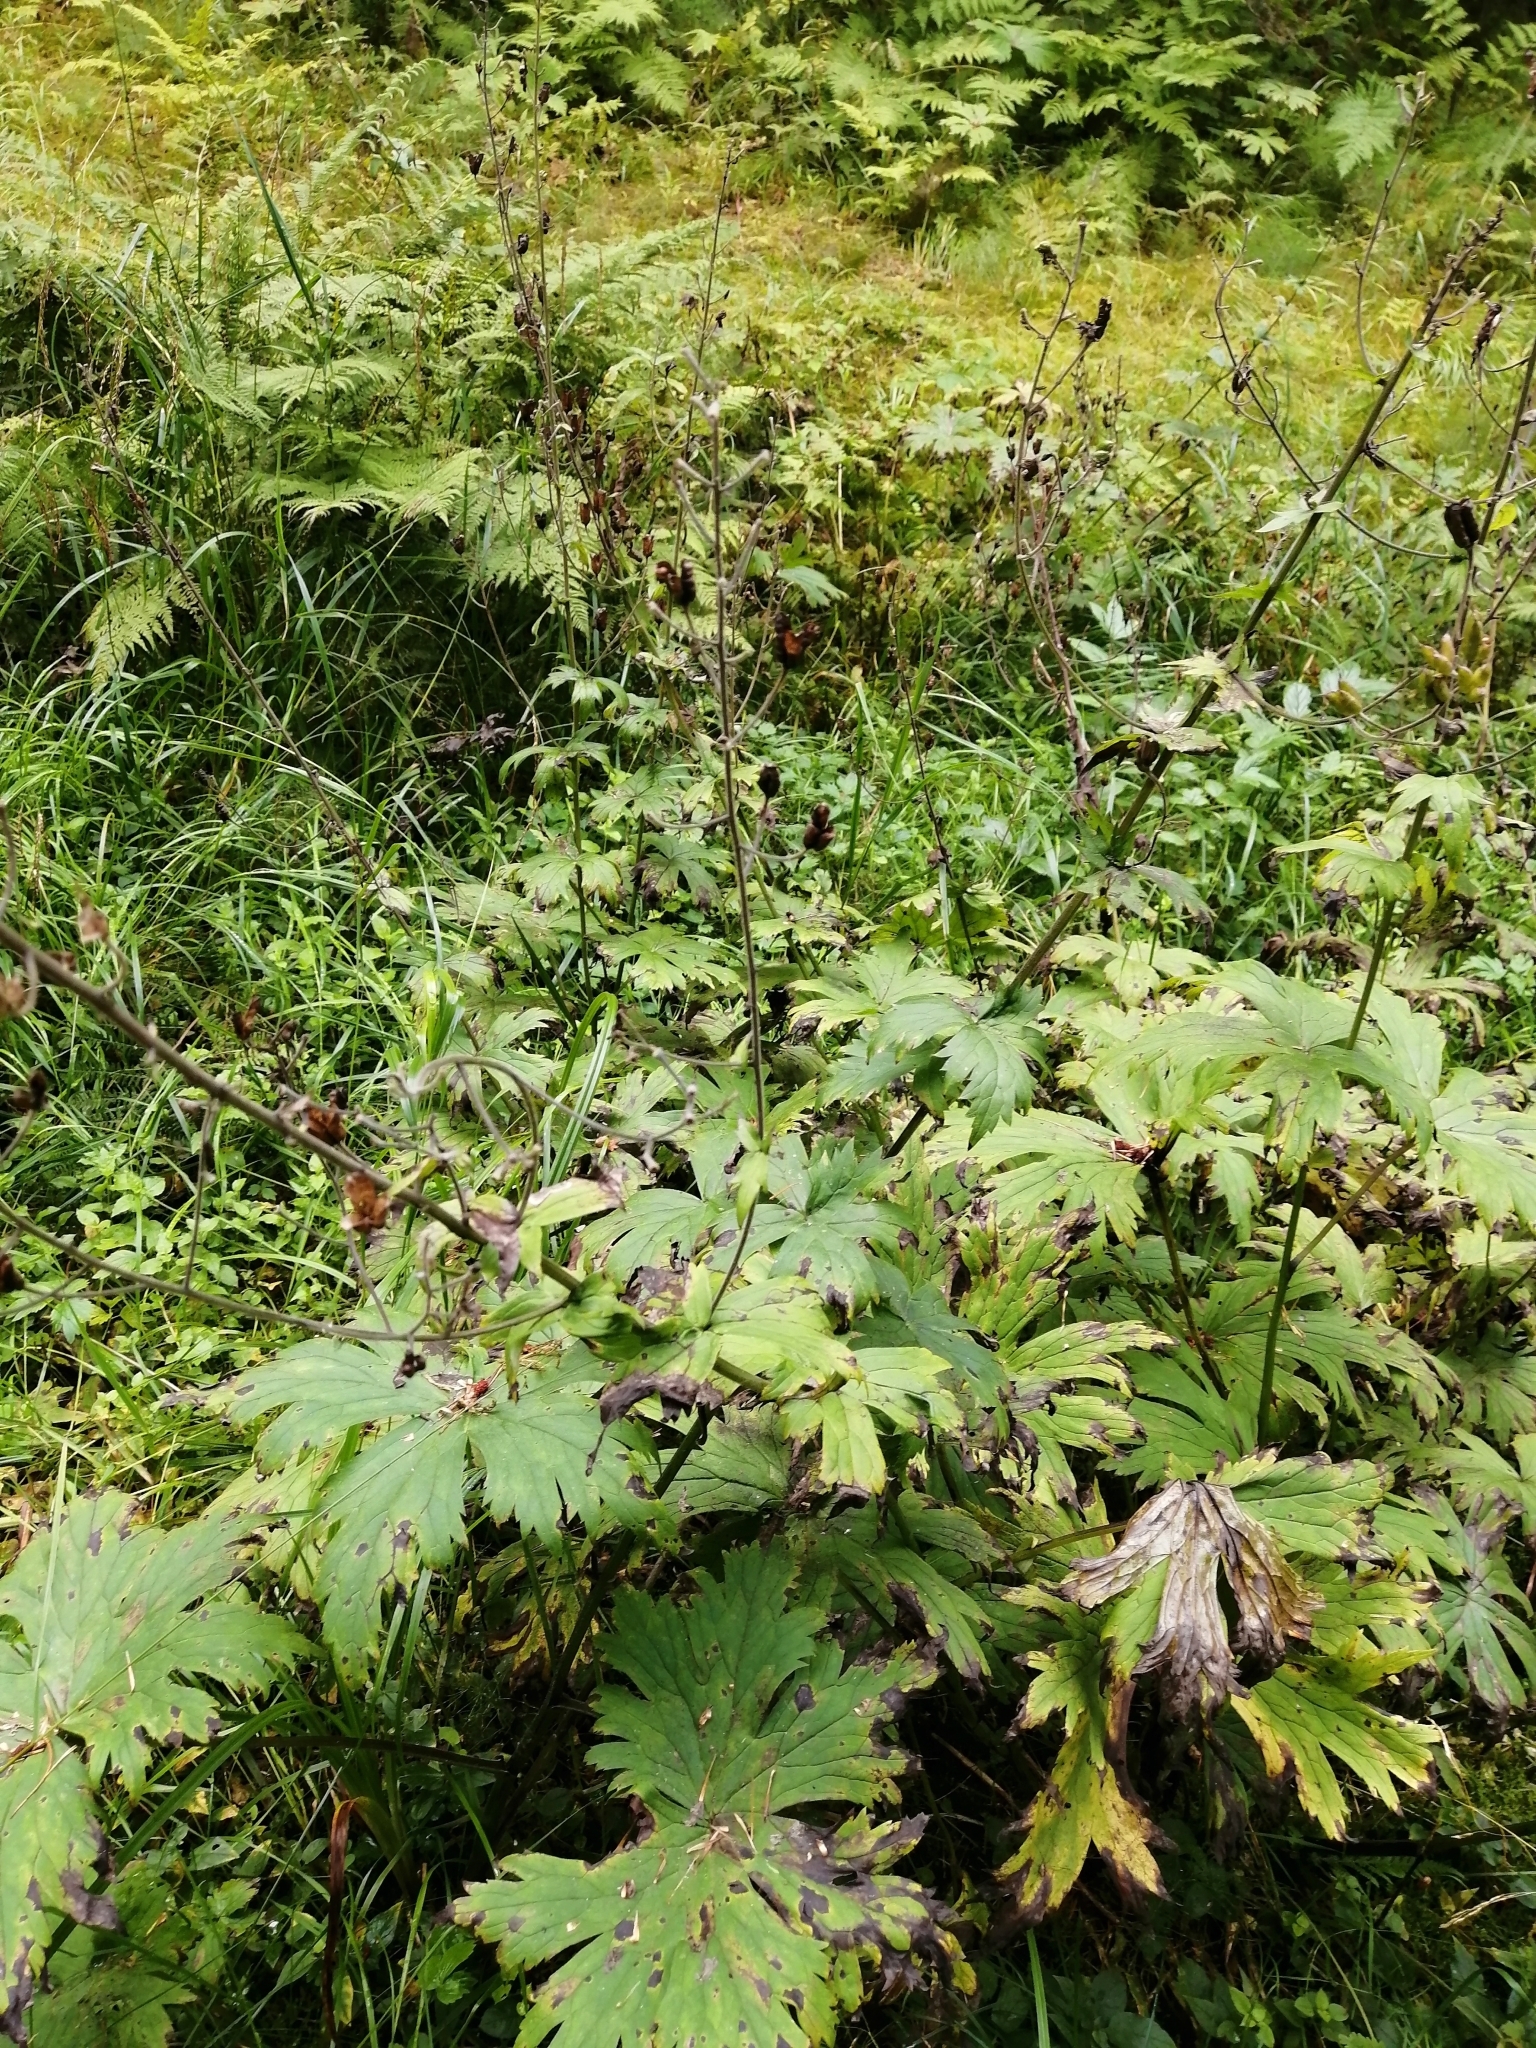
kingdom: Plantae
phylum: Tracheophyta
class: Magnoliopsida
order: Ranunculales
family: Ranunculaceae
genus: Aconitum
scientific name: Aconitum septentrionale
